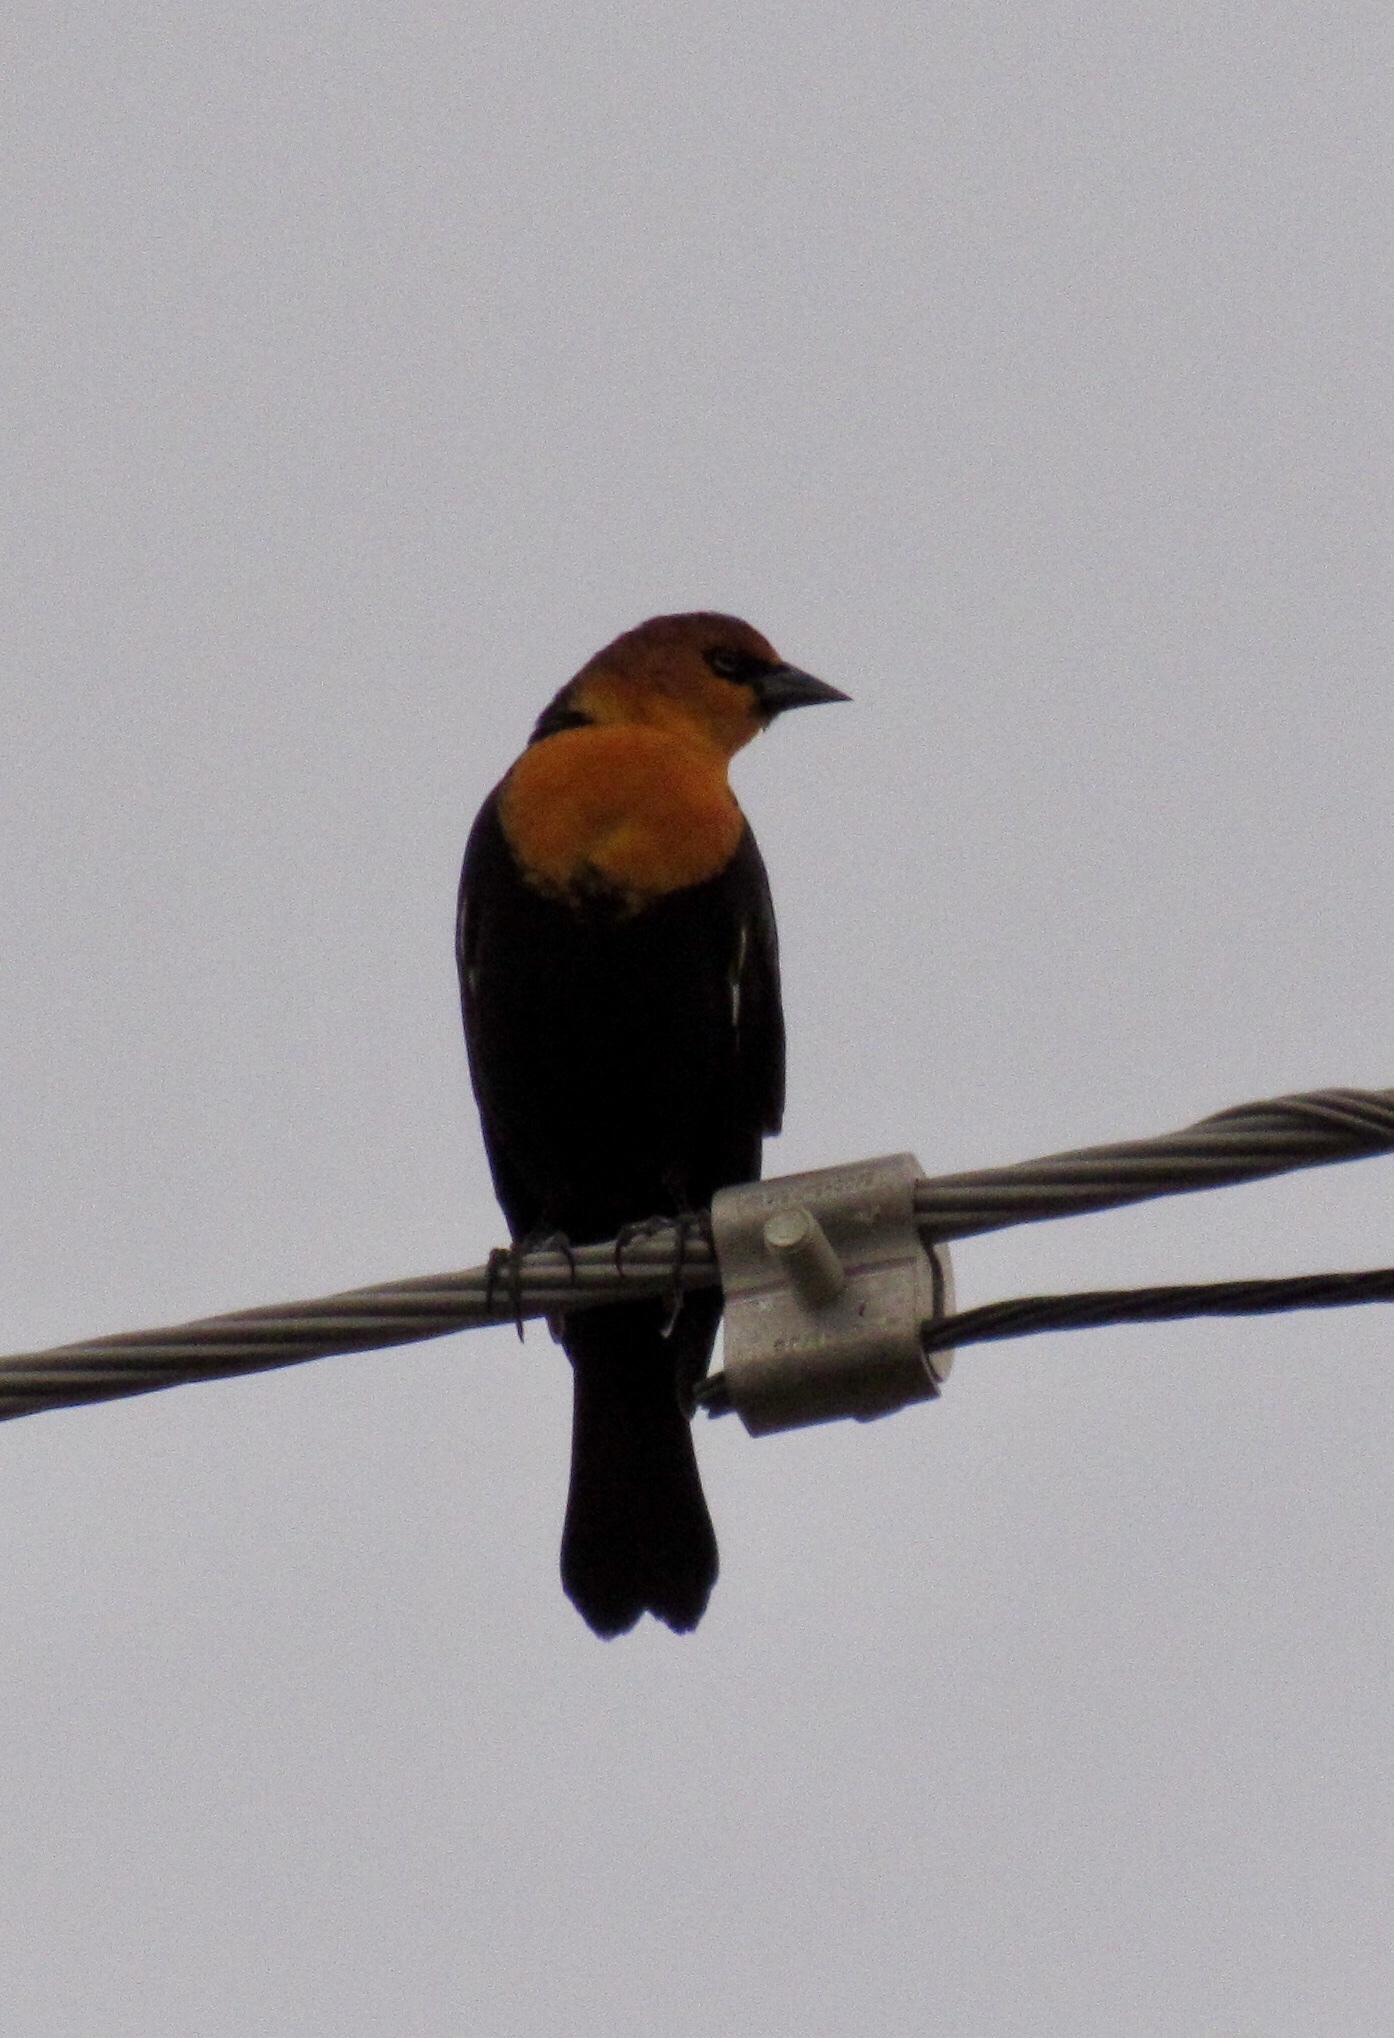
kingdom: Animalia
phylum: Chordata
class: Aves
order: Passeriformes
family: Icteridae
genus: Xanthocephalus
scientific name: Xanthocephalus xanthocephalus
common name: Yellow-headed blackbird
